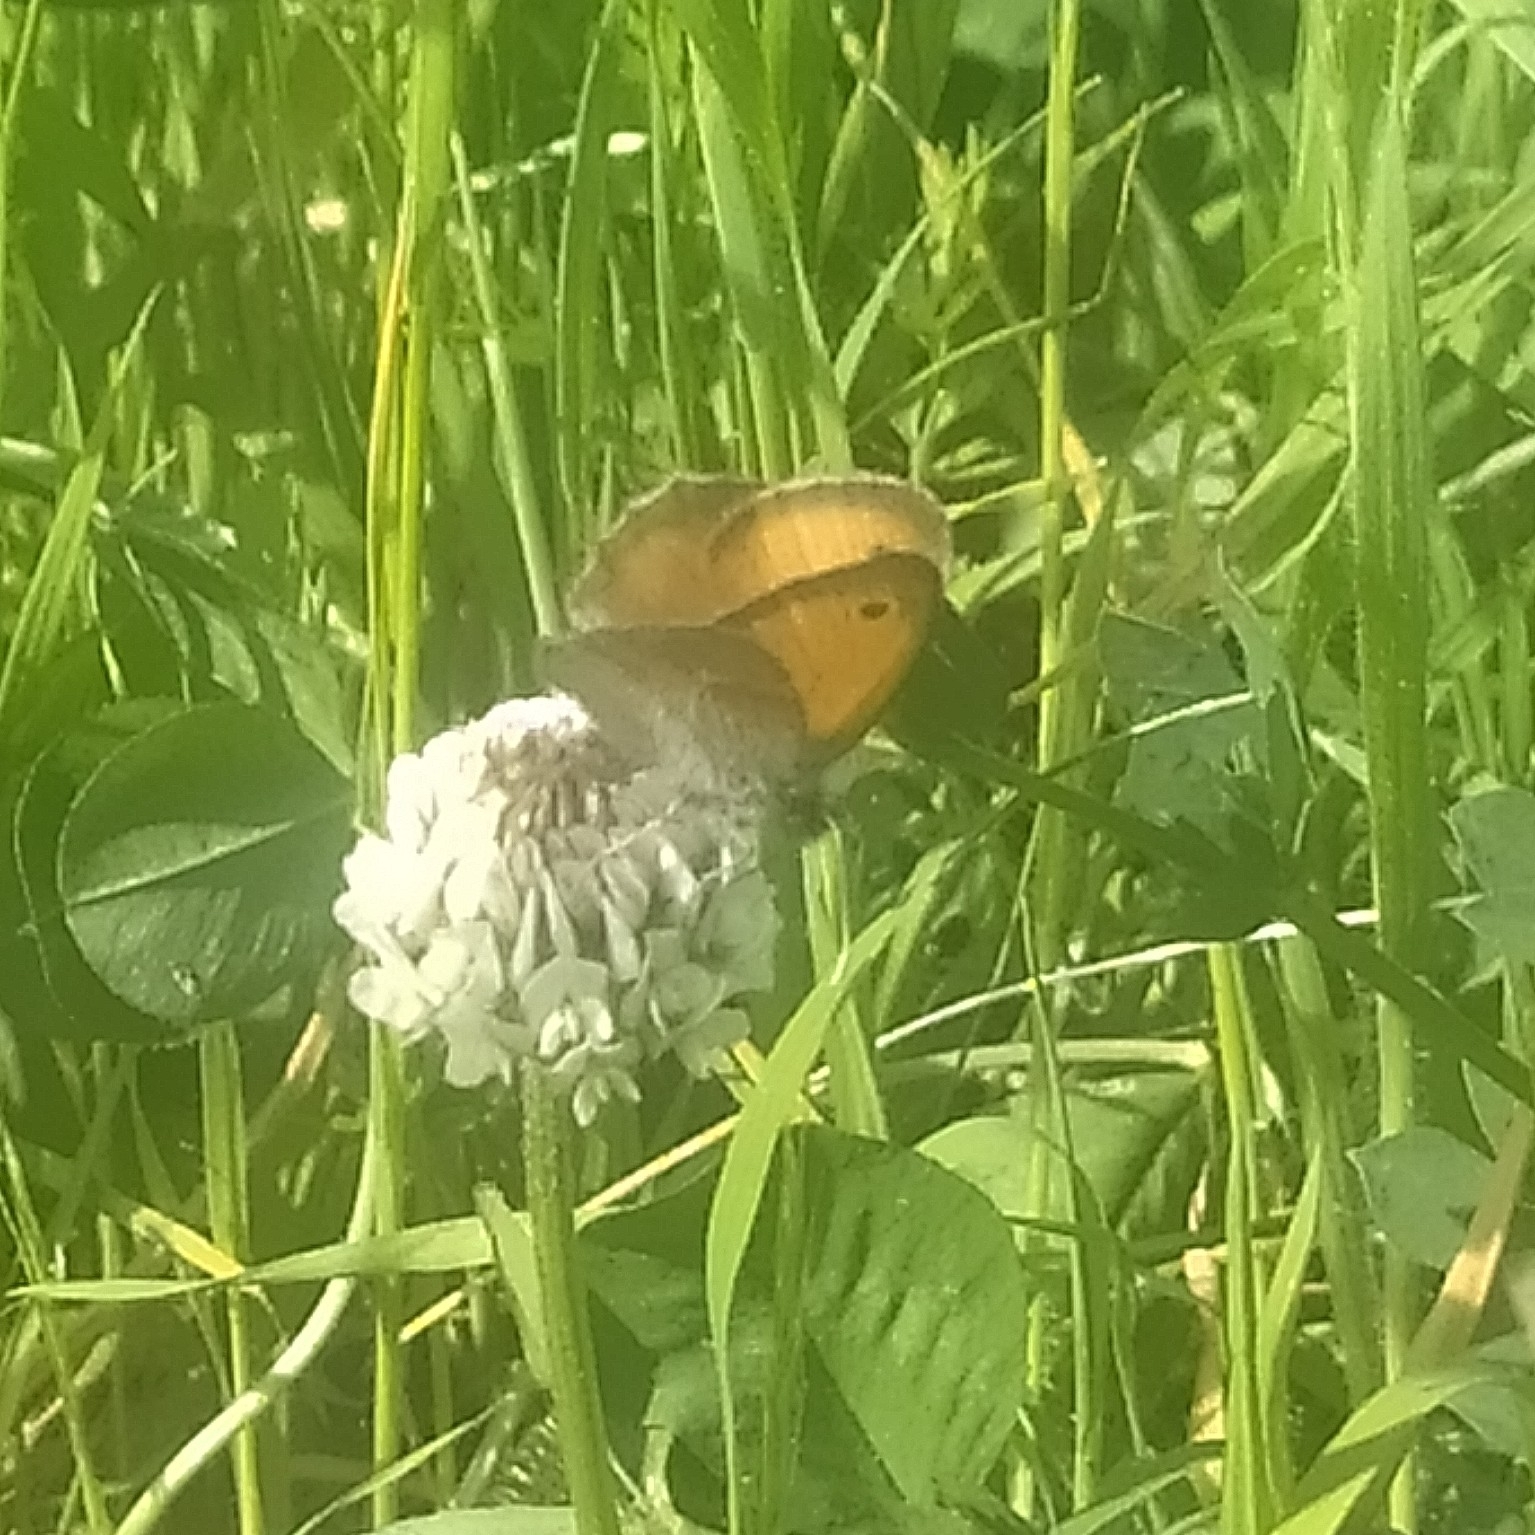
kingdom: Animalia
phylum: Arthropoda
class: Insecta
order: Lepidoptera
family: Nymphalidae
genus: Coenonympha
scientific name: Coenonympha pamphilus
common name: Small heath
